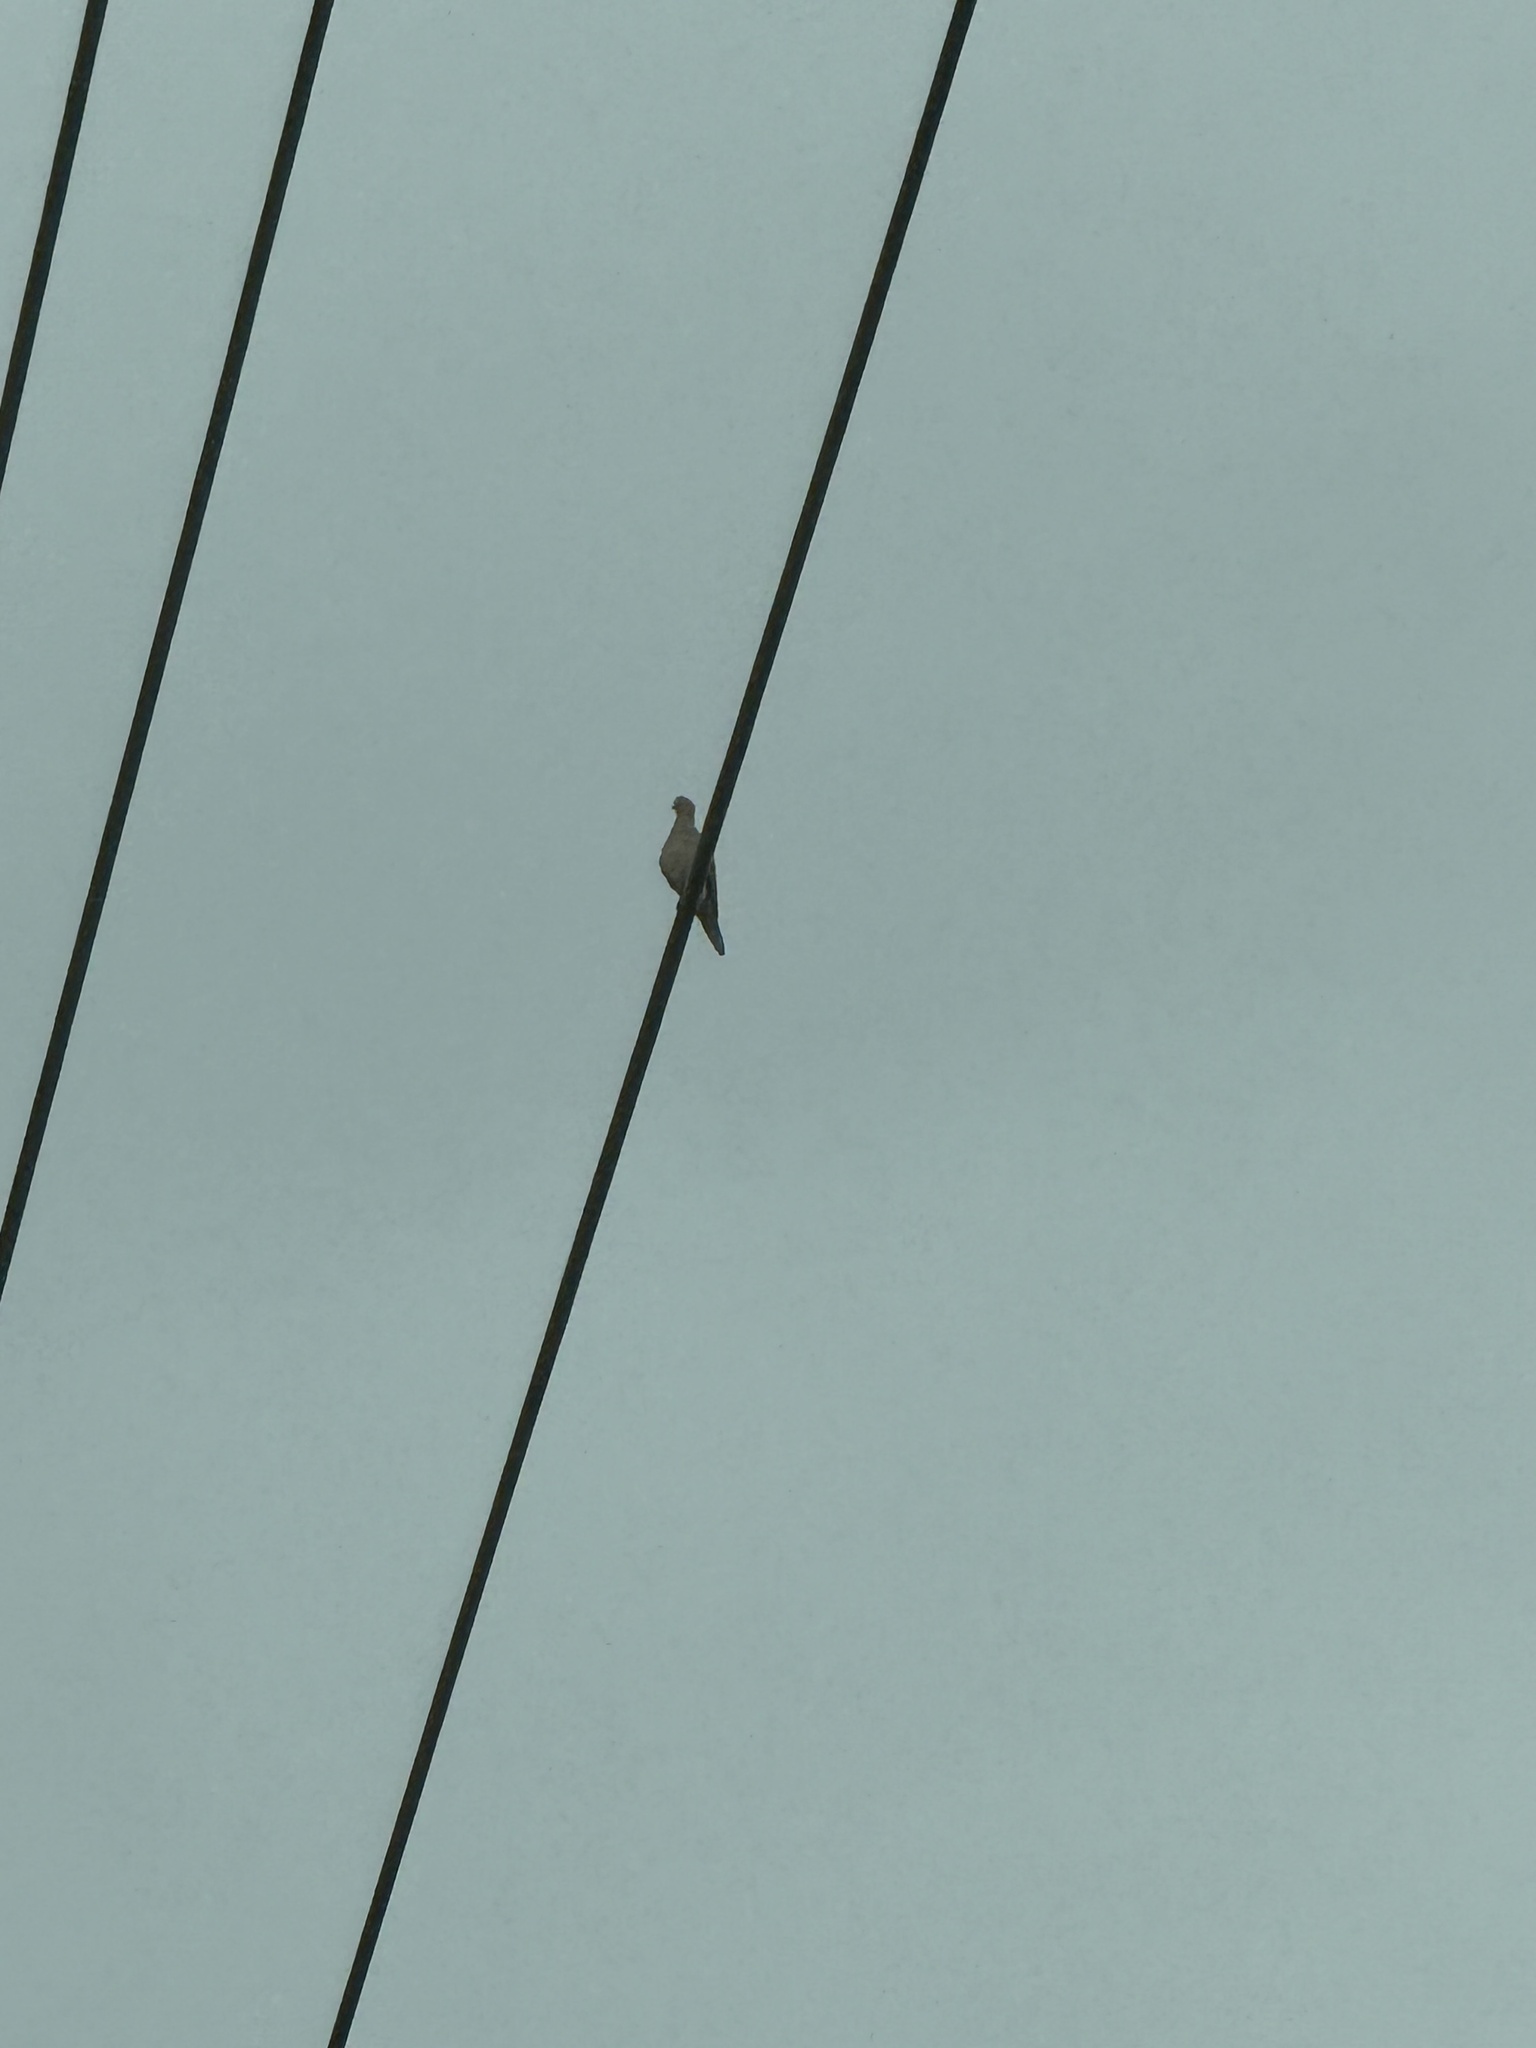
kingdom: Animalia
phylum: Chordata
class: Aves
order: Columbiformes
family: Columbidae
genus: Zenaida
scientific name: Zenaida macroura
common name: Mourning dove
